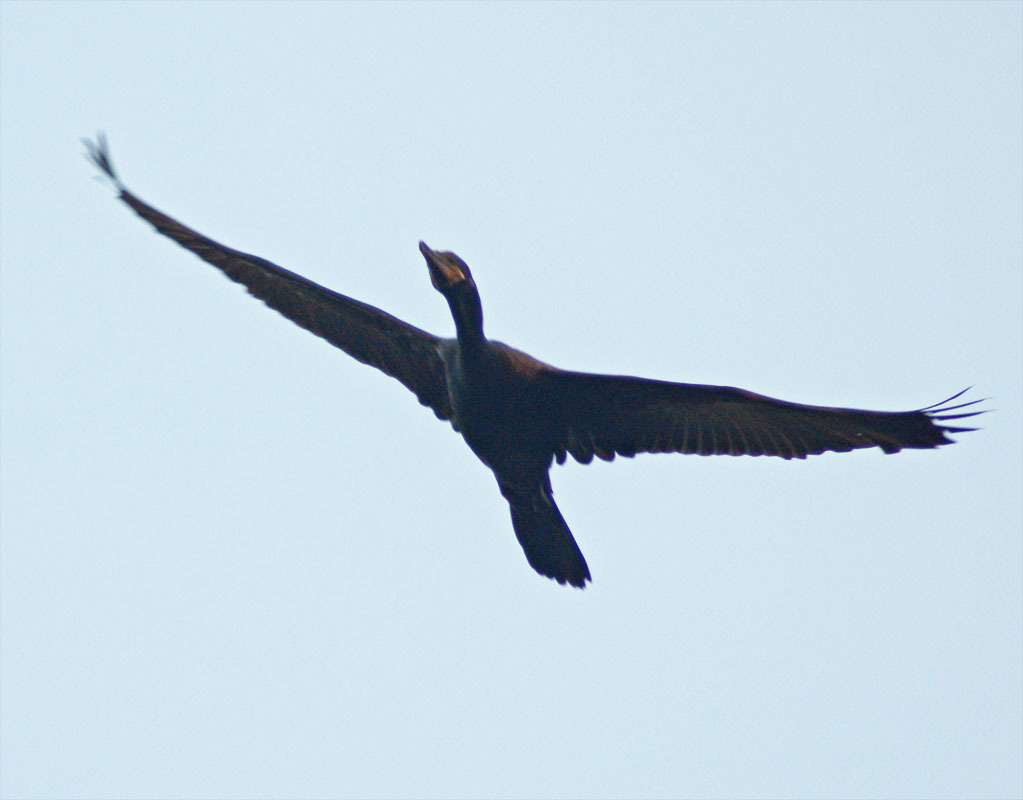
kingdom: Animalia
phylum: Chordata
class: Aves
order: Suliformes
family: Phalacrocoracidae
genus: Phalacrocorax
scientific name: Phalacrocorax brasilianus
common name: Neotropic cormorant
